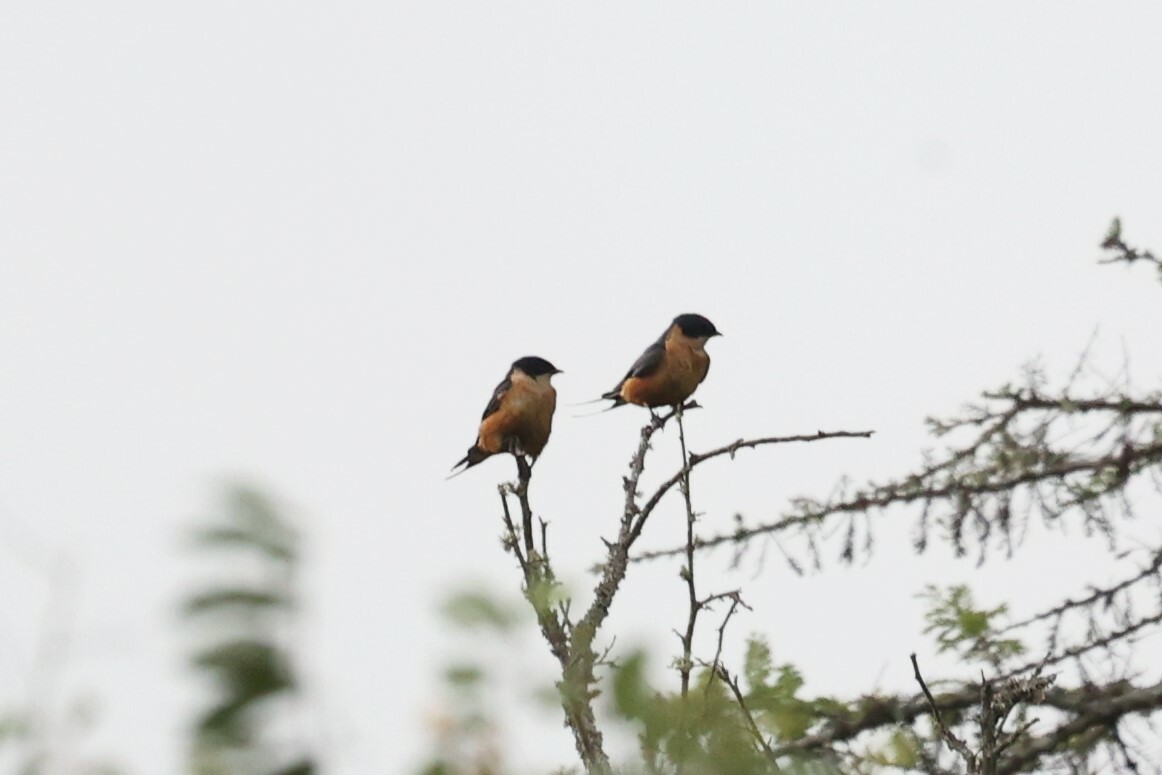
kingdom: Animalia
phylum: Chordata
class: Aves
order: Passeriformes
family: Hirundinidae
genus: Cecropis
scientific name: Cecropis semirufa
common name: Red-breasted swallow
